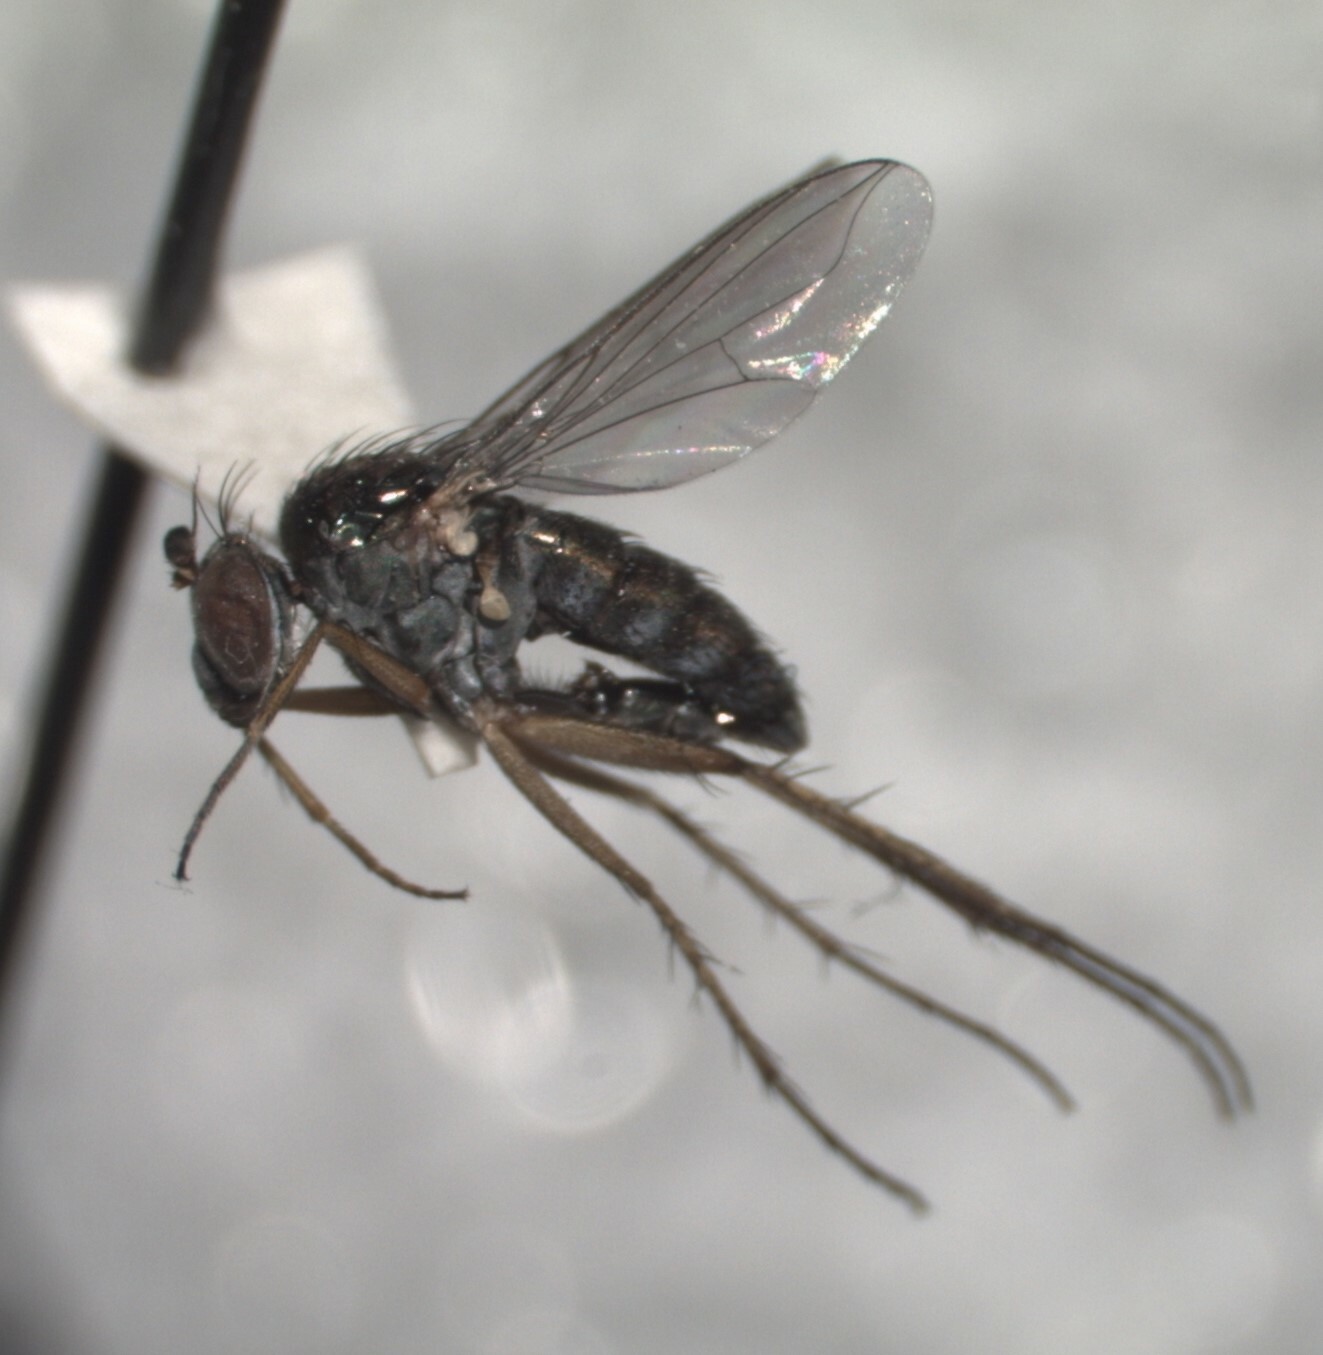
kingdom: Animalia
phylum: Arthropoda
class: Insecta
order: Diptera
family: Dolichopodidae
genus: Pelastoneurus
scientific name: Pelastoneurus vagans
